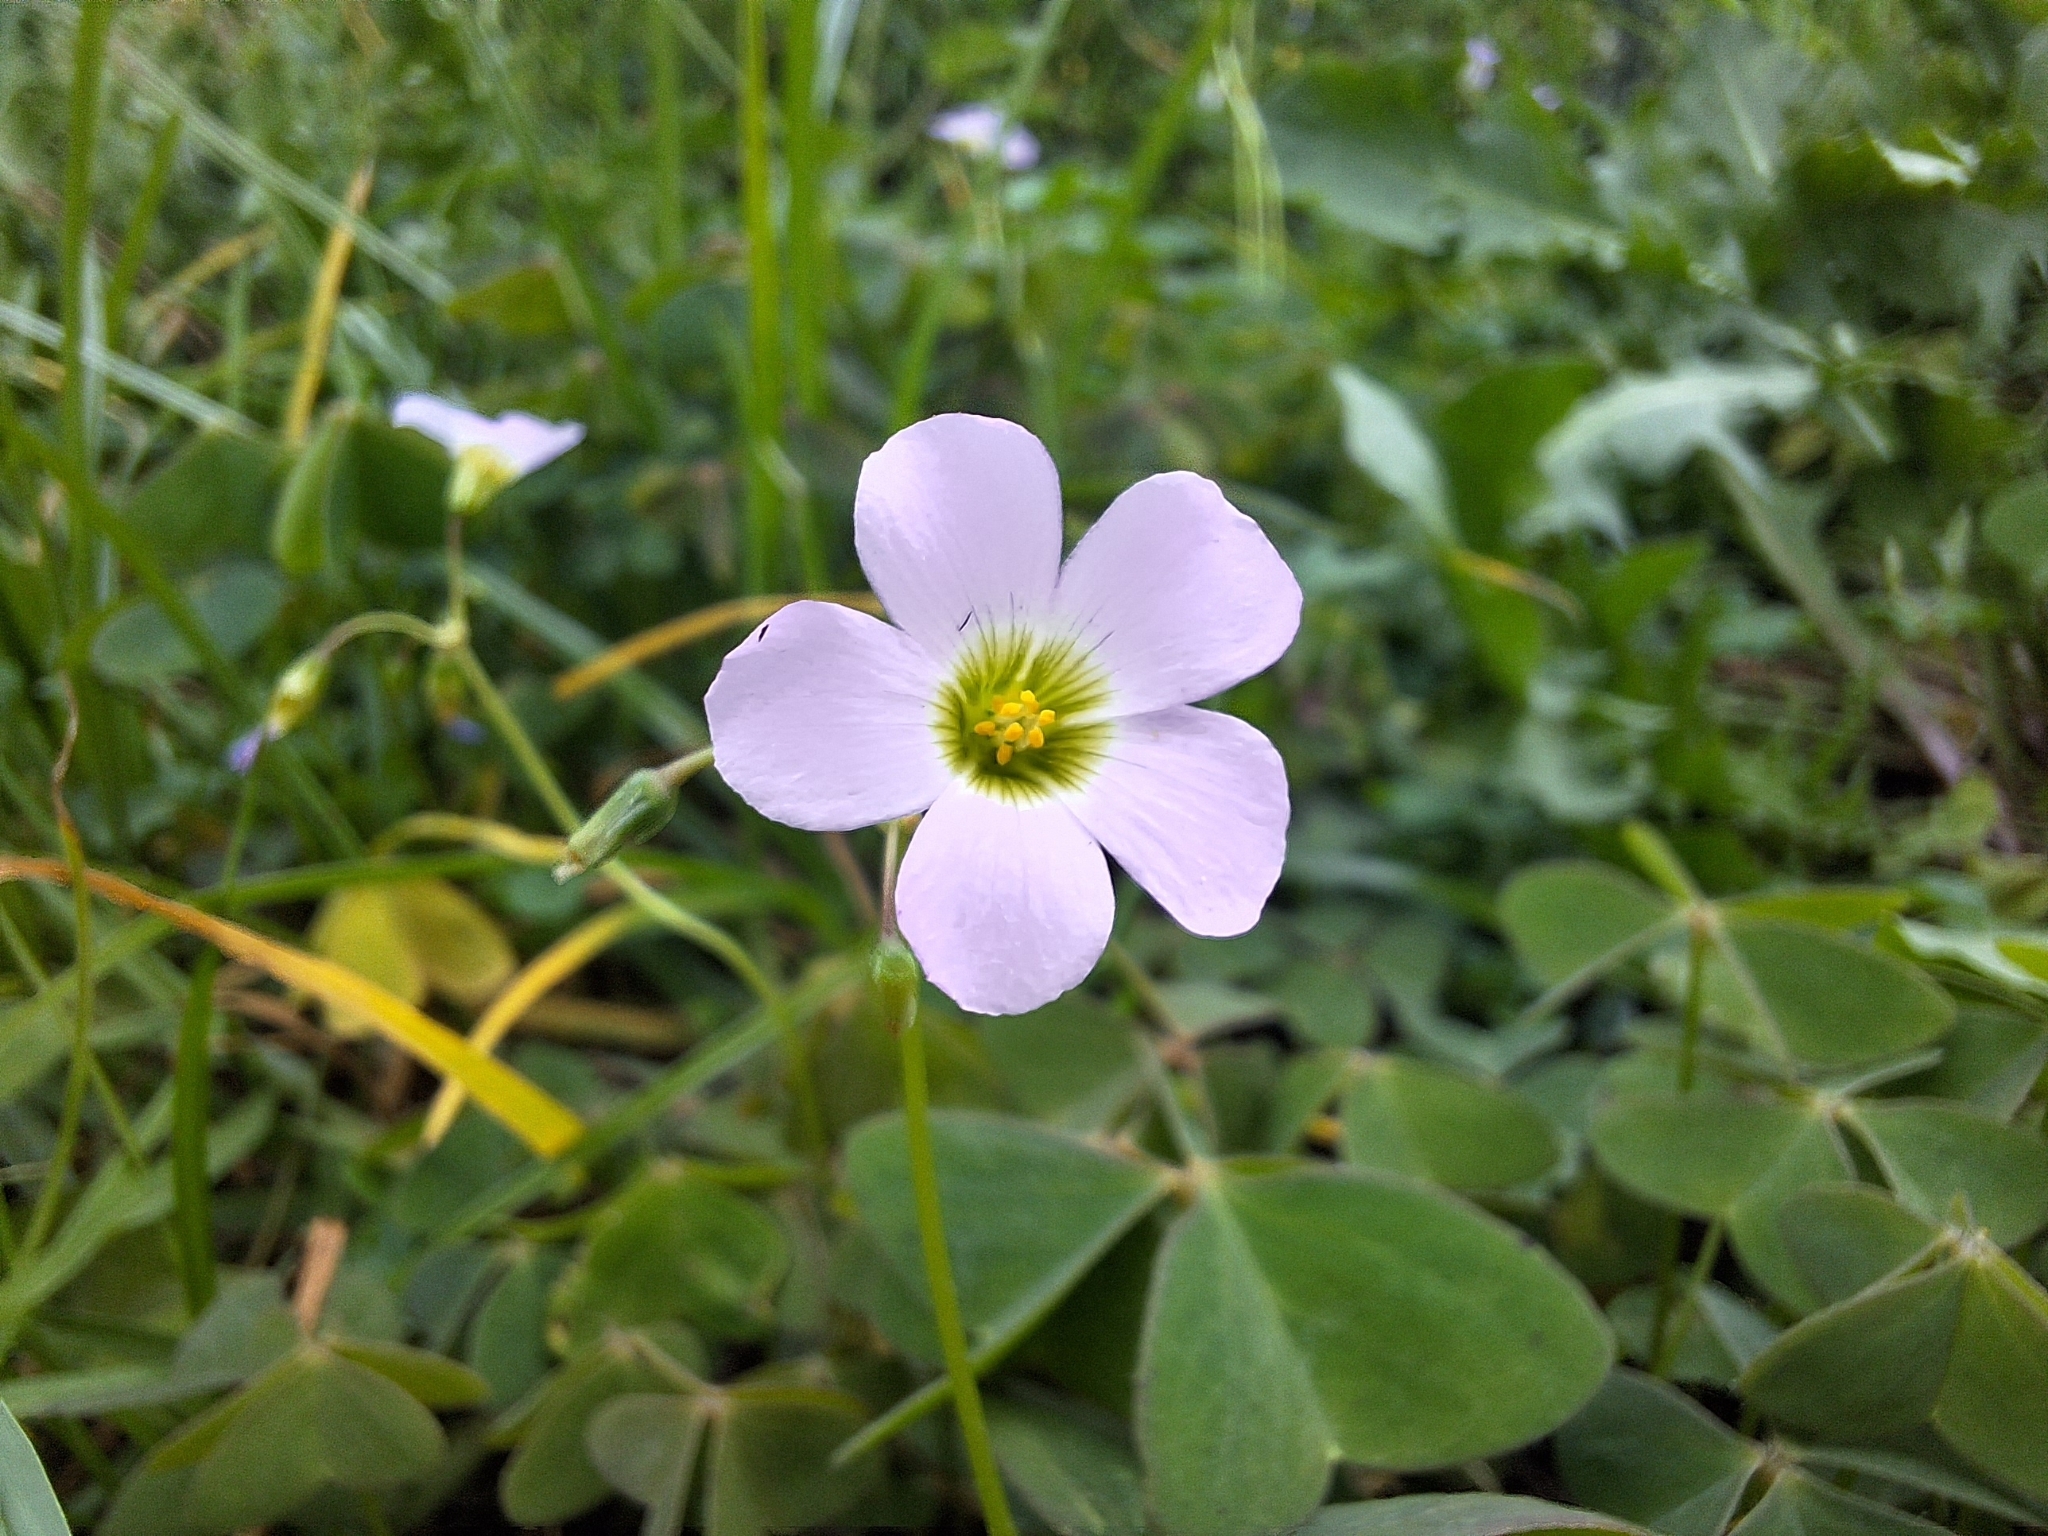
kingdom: Plantae
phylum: Tracheophyta
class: Magnoliopsida
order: Oxalidales
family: Oxalidaceae
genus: Oxalis
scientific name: Oxalis latifolia
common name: Garden pink-sorrel
